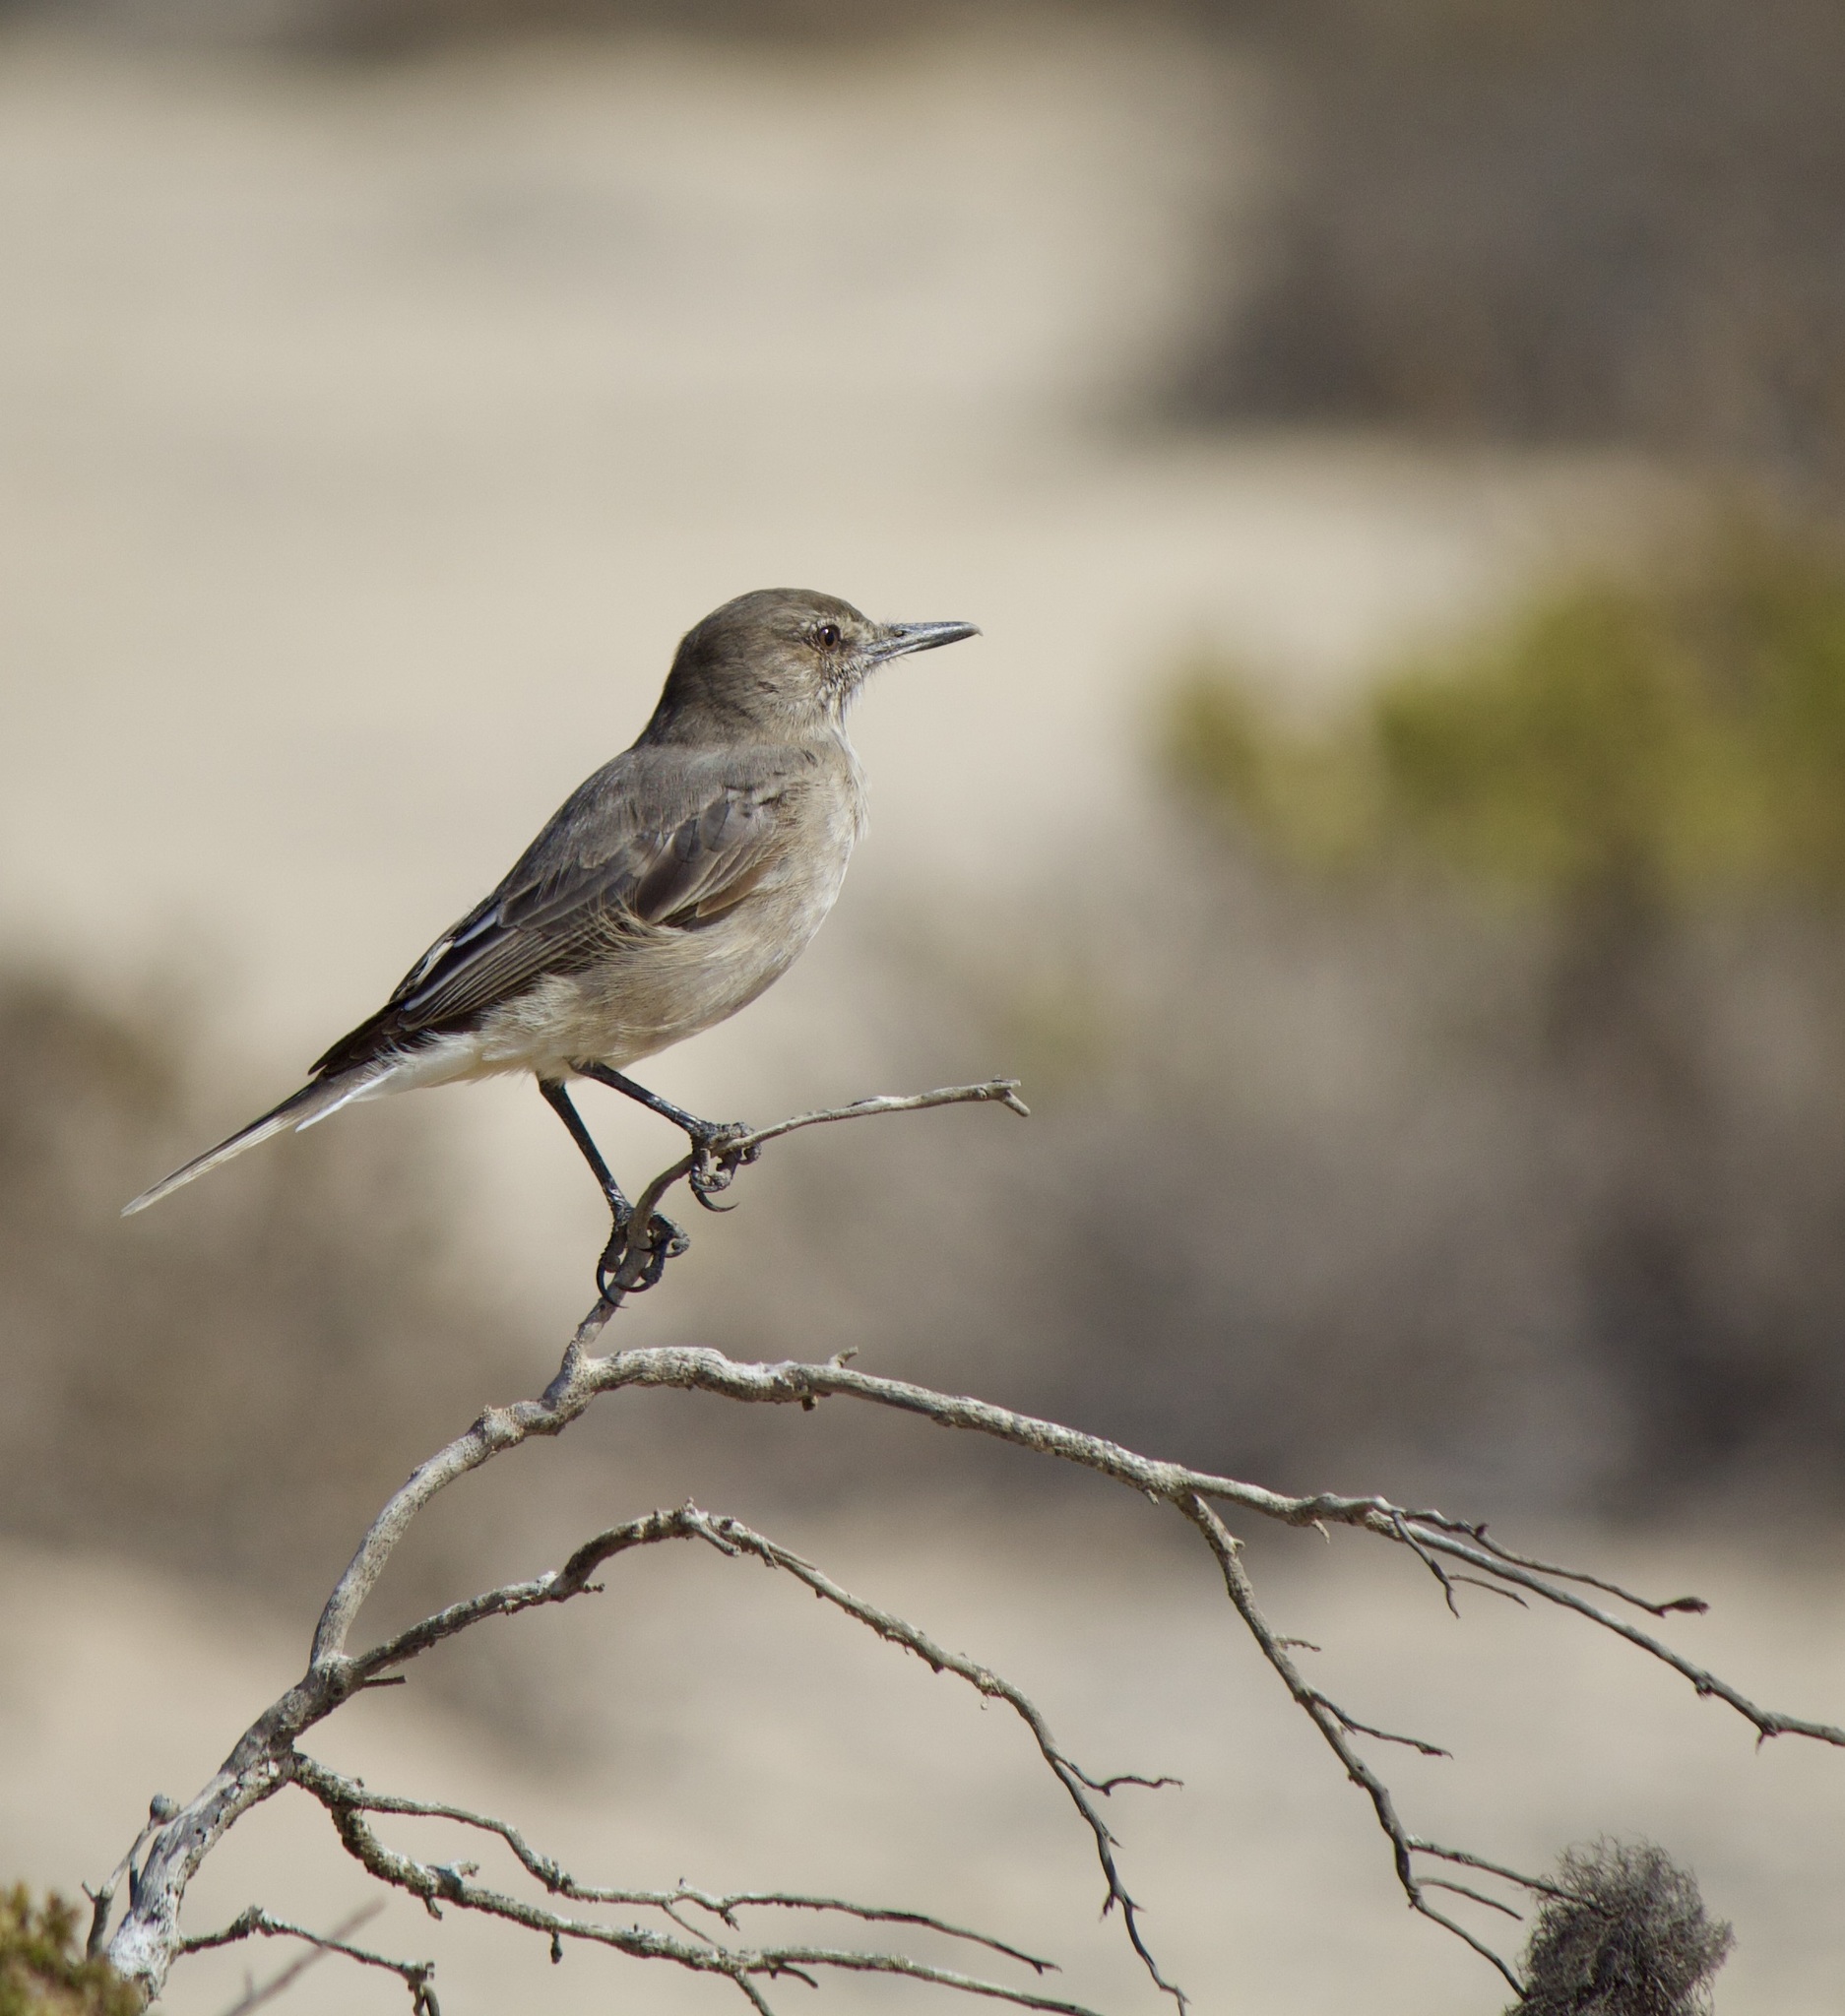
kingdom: Animalia
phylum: Chordata
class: Aves
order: Passeriformes
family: Tyrannidae
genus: Agriornis
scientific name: Agriornis montanus
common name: Black-billed shrike-tyrant
